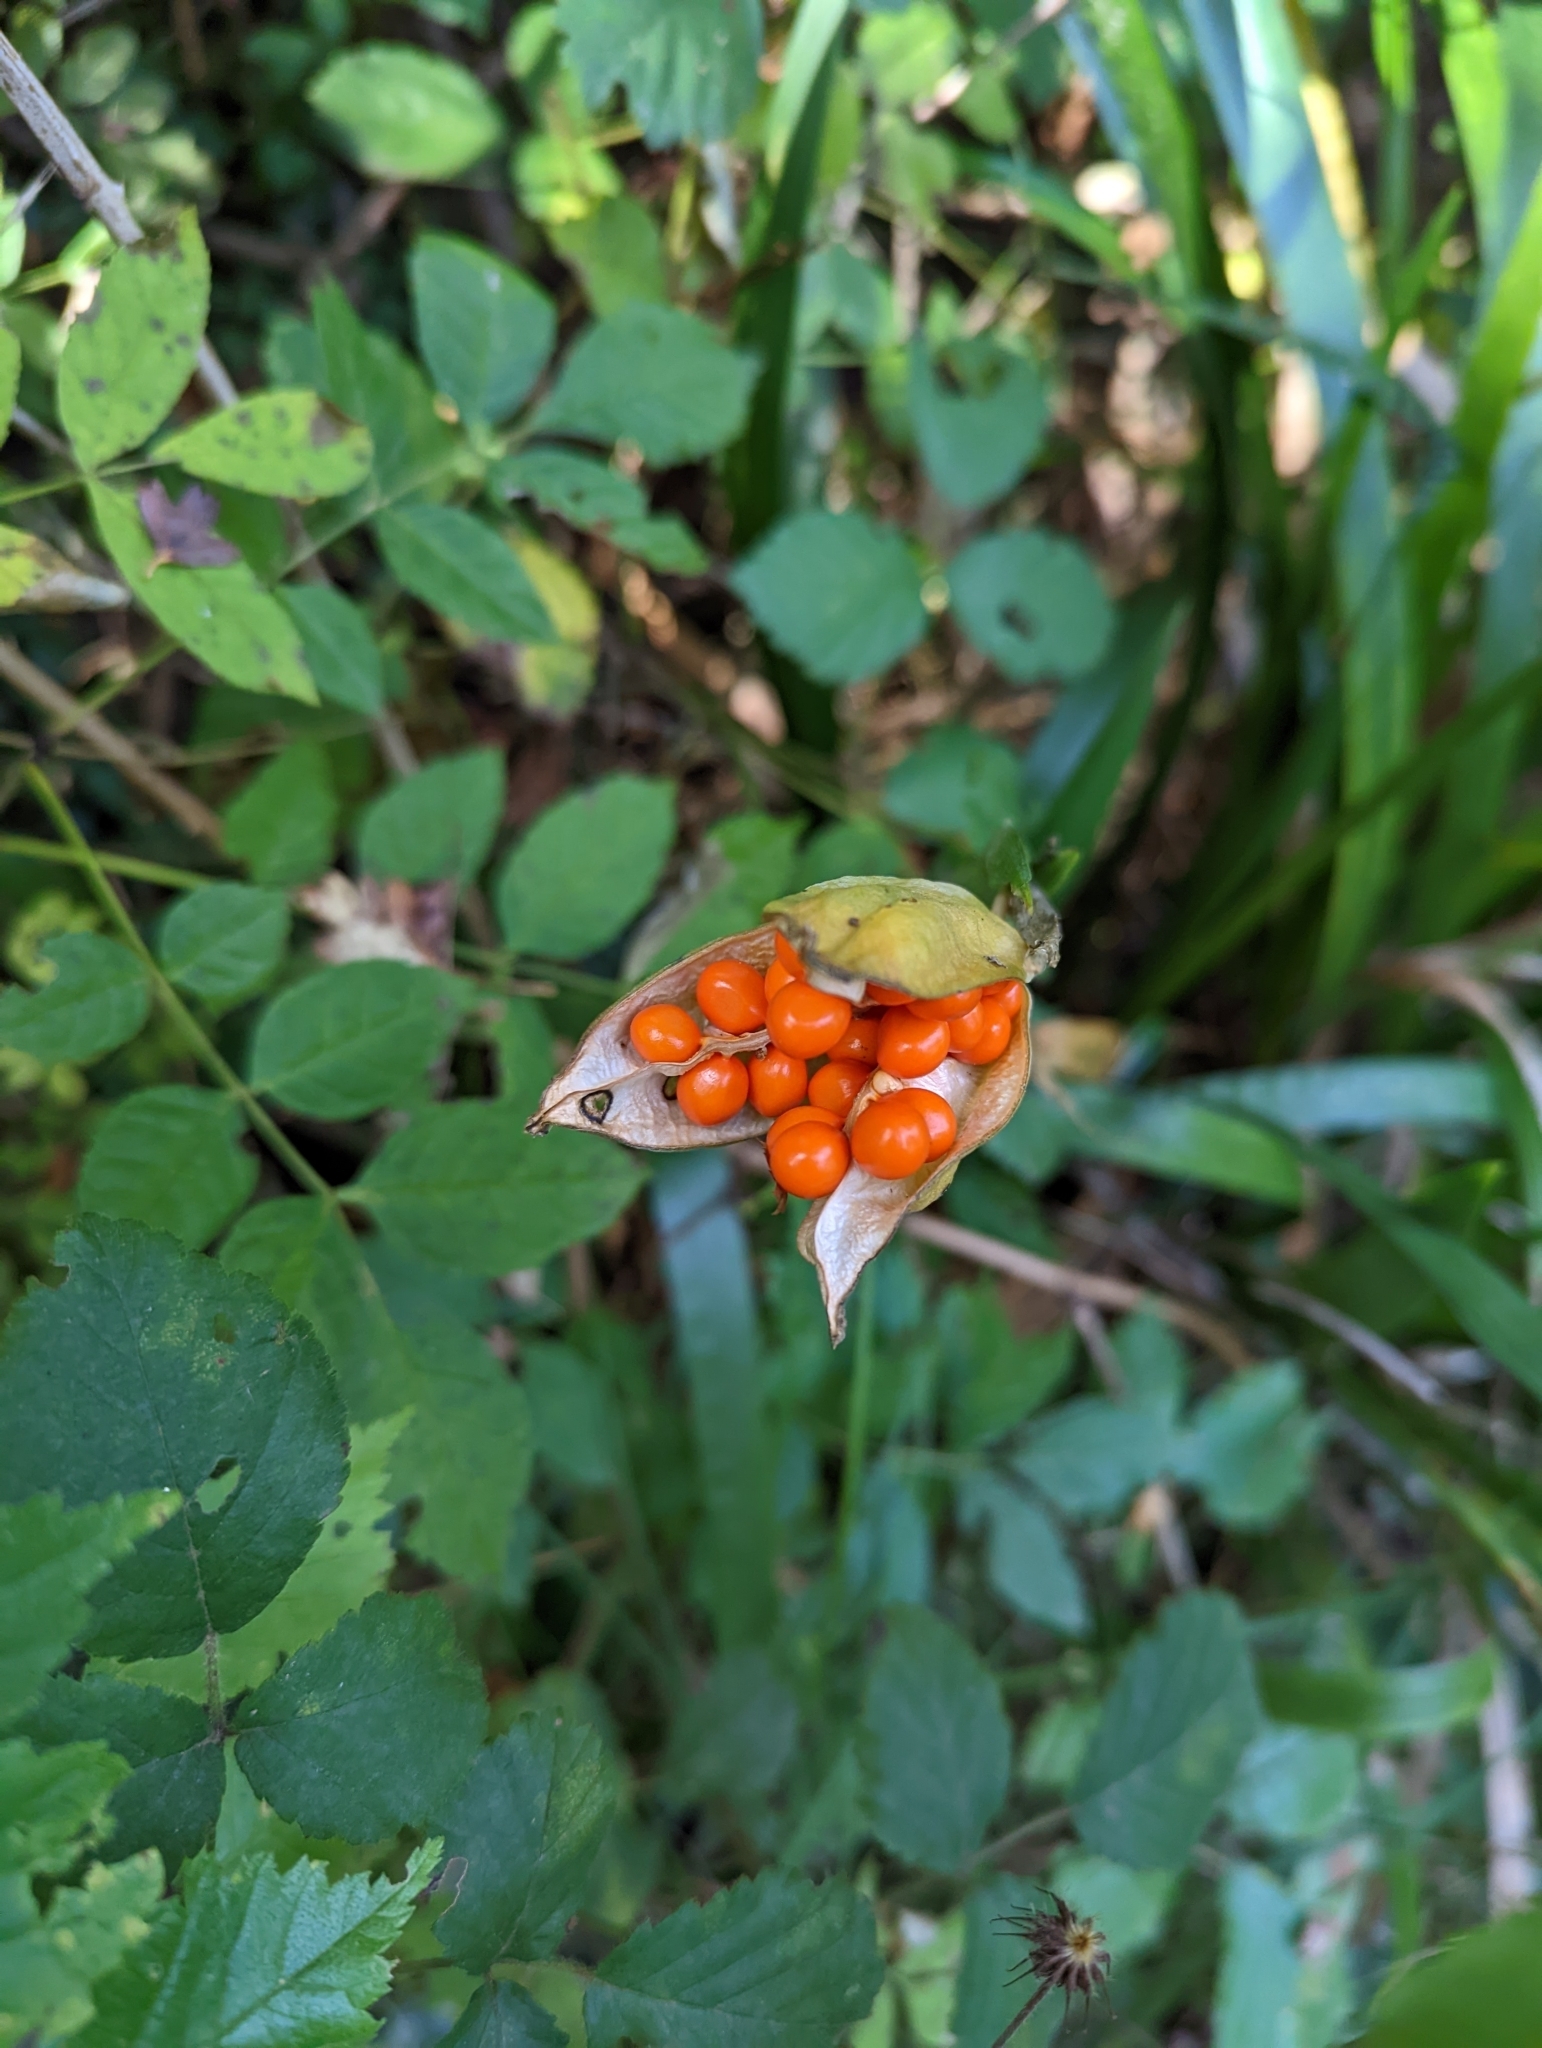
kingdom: Plantae
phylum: Tracheophyta
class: Liliopsida
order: Asparagales
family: Iridaceae
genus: Iris
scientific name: Iris foetidissima
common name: Stinking iris
